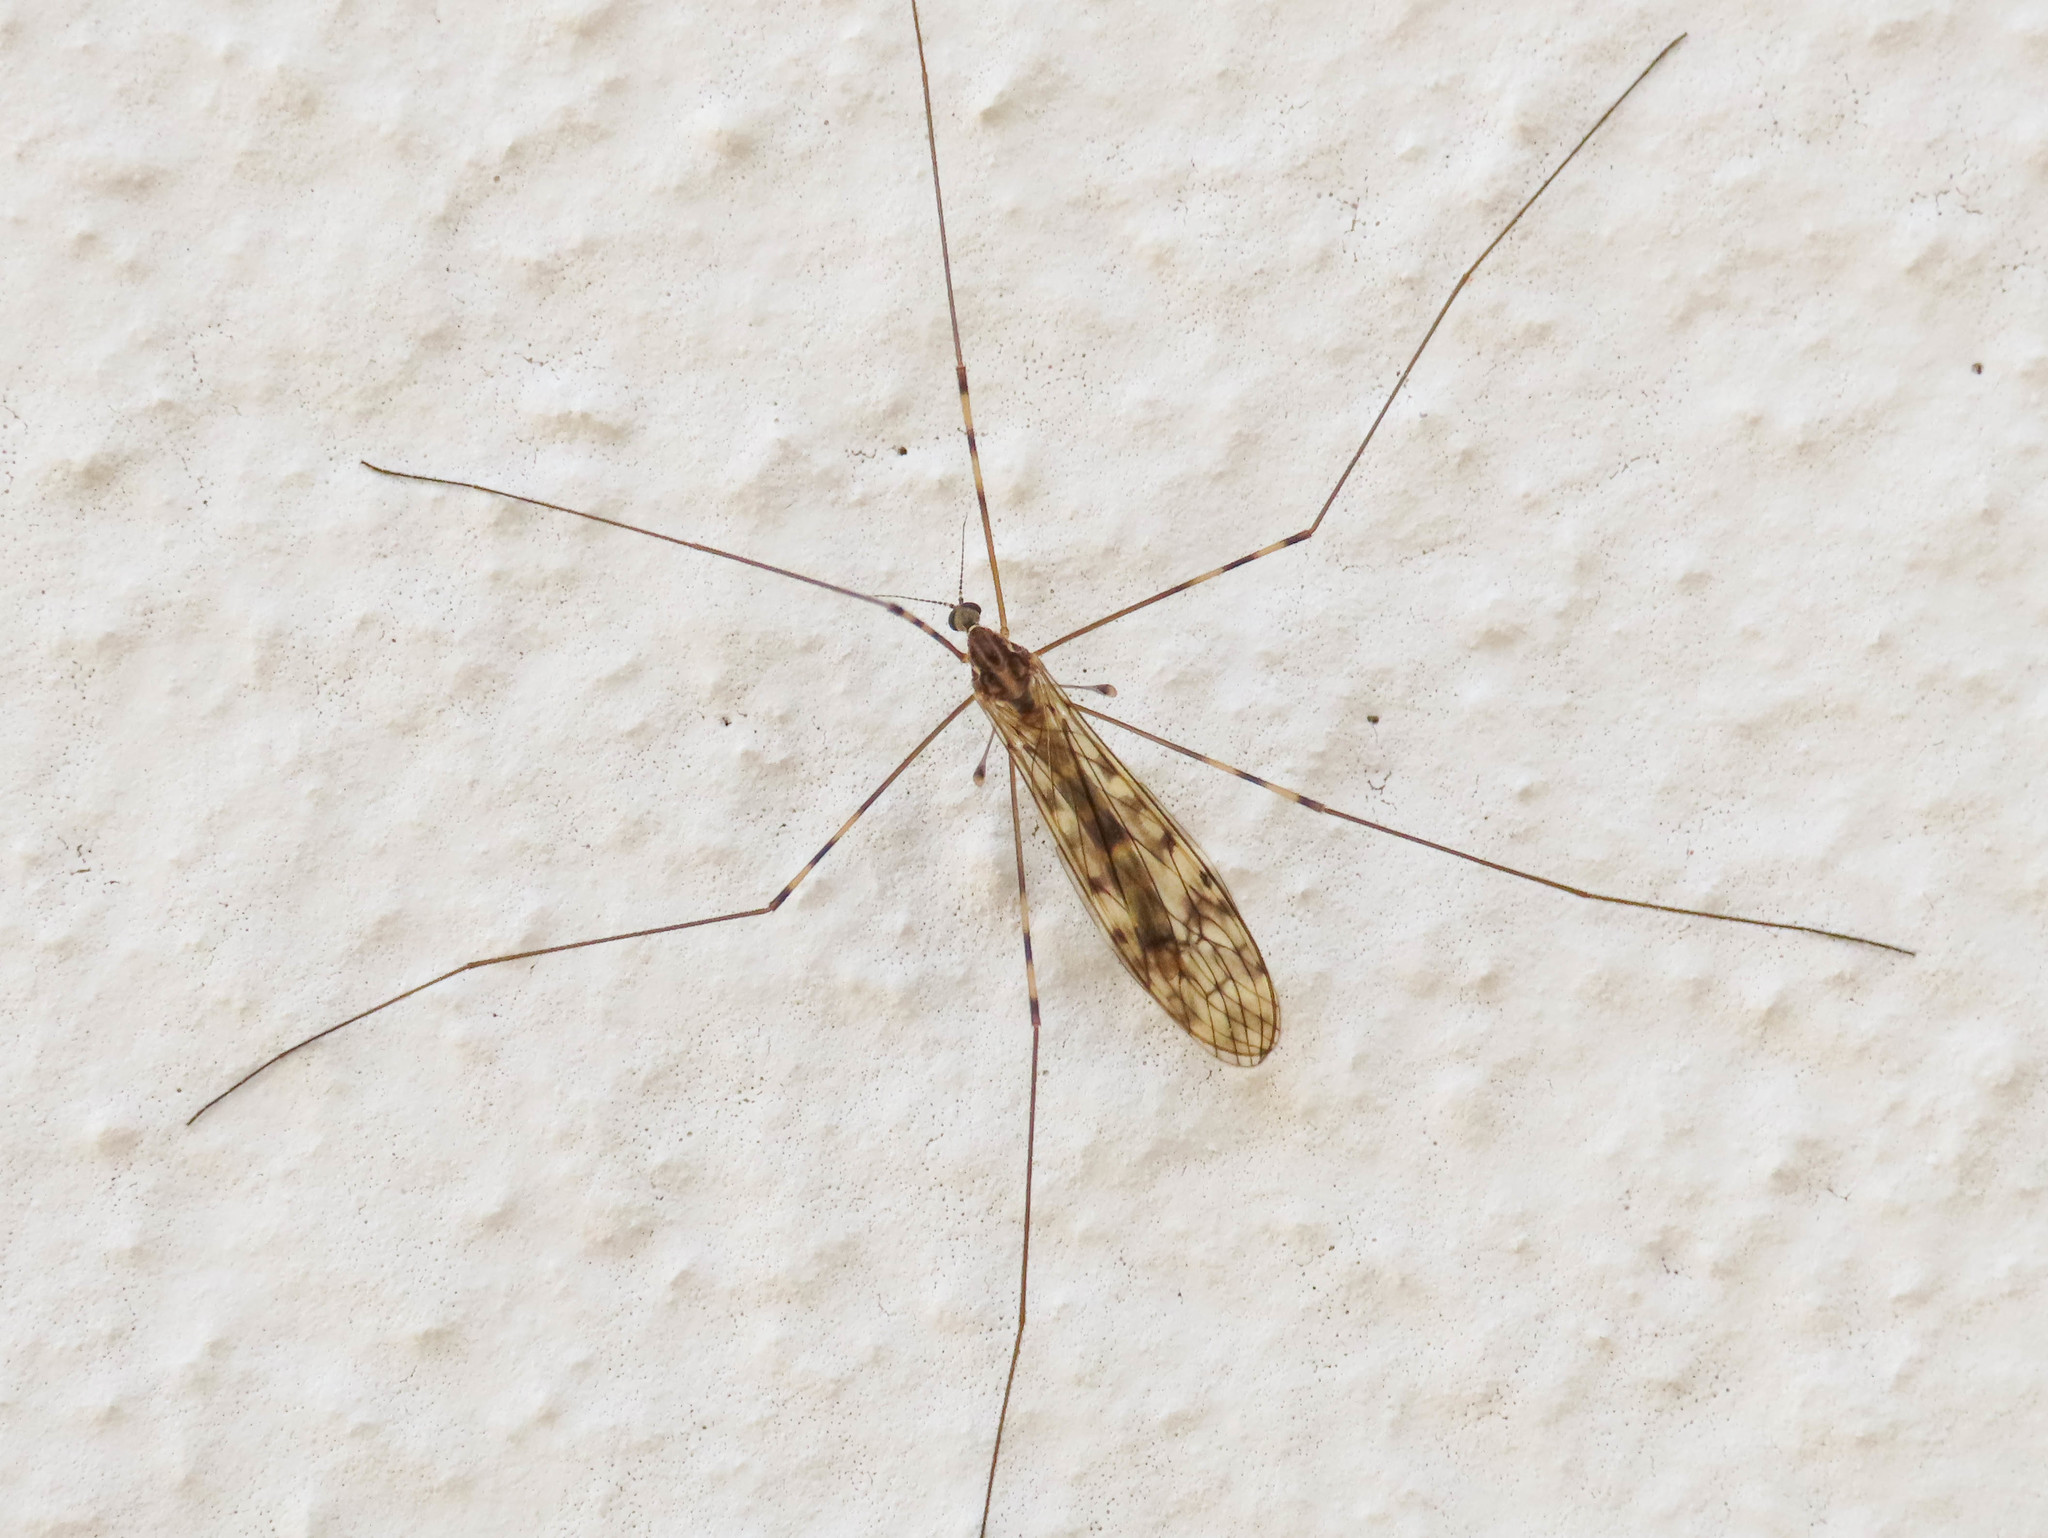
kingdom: Animalia
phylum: Arthropoda
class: Insecta
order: Diptera
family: Limoniidae
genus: Limonia
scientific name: Limonia nubeculosa
